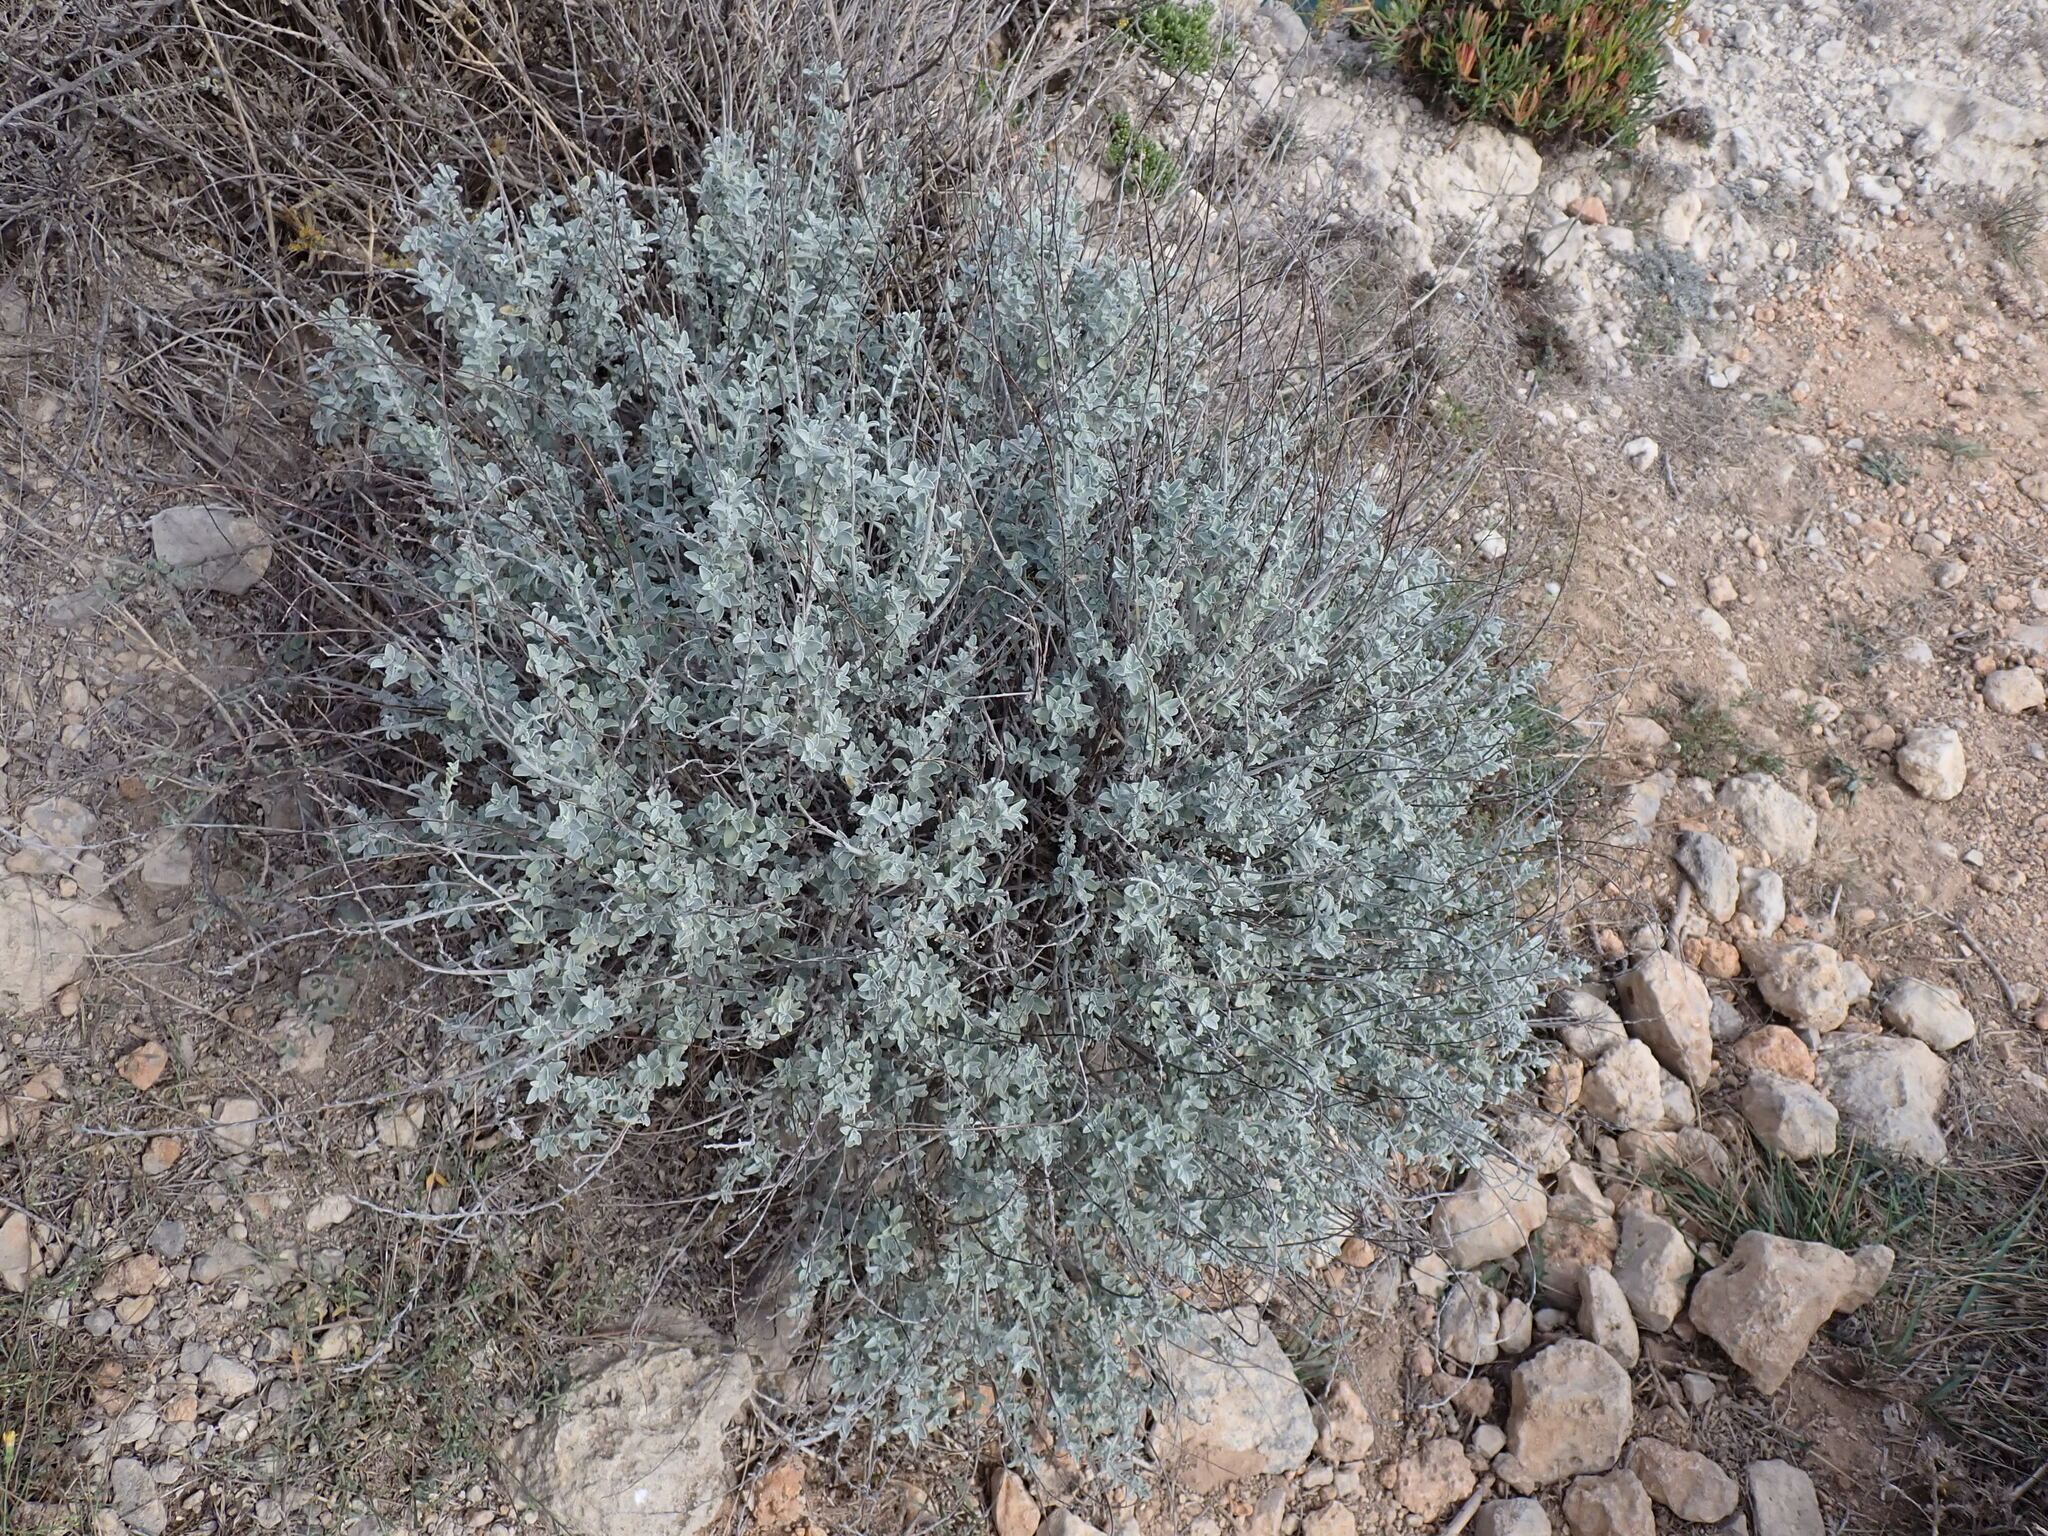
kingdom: Plantae
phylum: Tracheophyta
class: Magnoliopsida
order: Fabales
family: Fabaceae
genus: Anthyllis
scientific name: Anthyllis cytisoides
